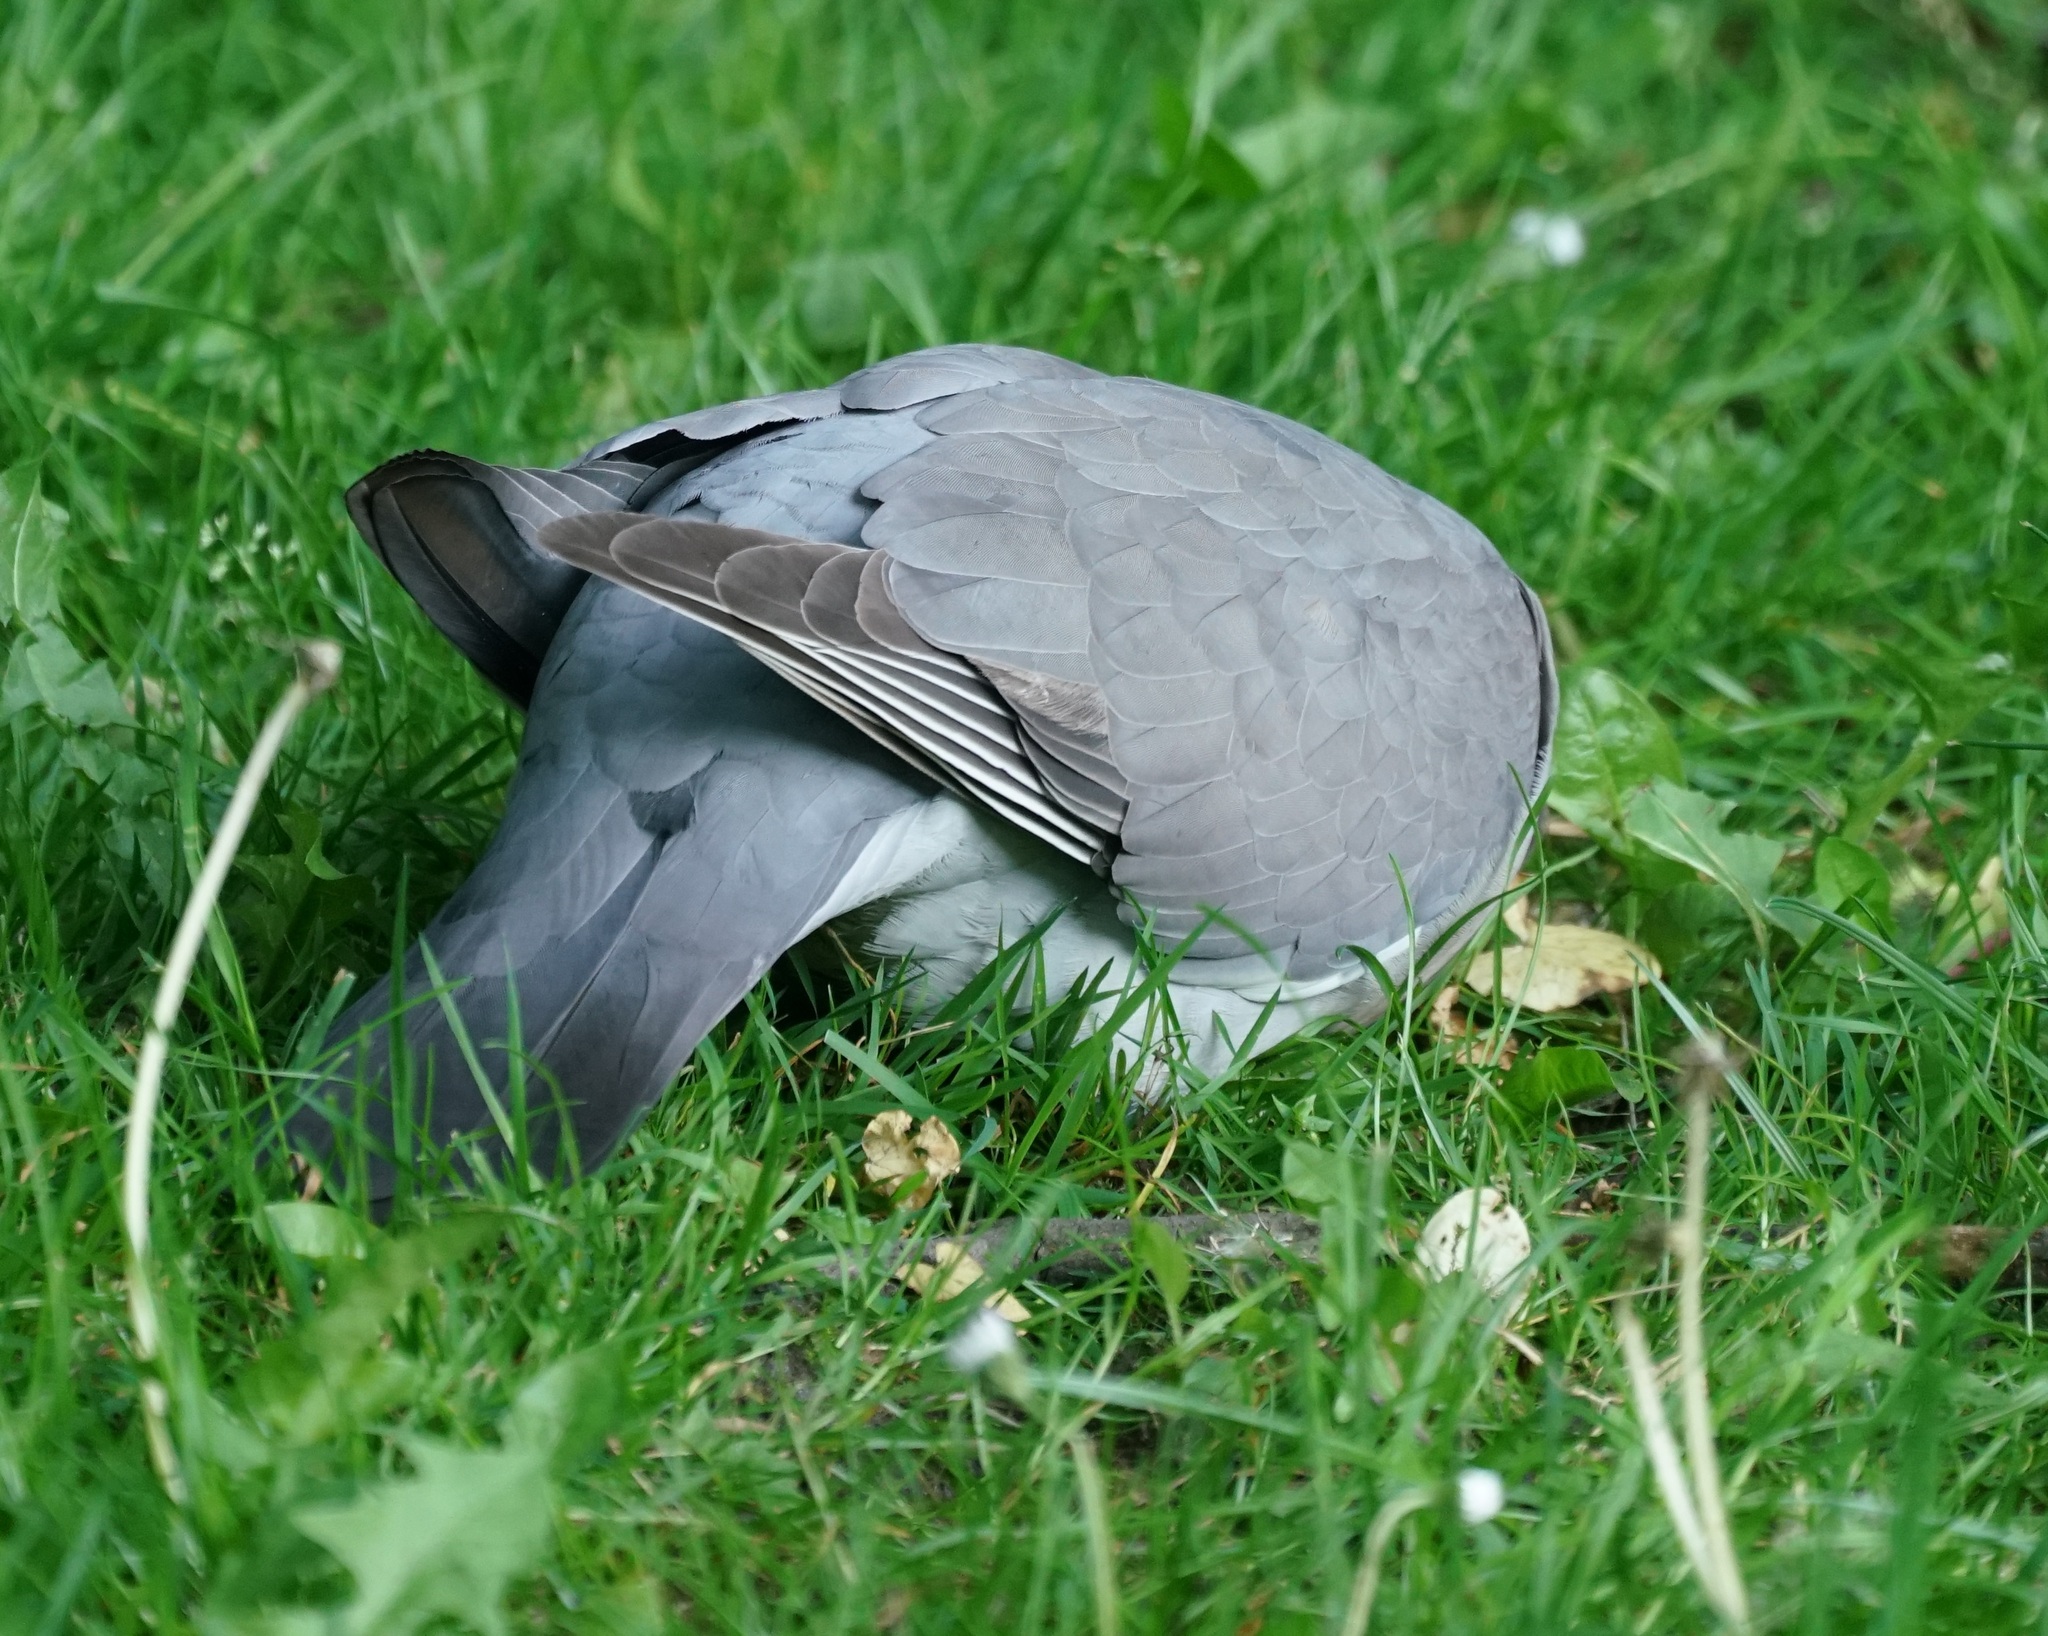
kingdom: Animalia
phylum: Chordata
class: Aves
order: Columbiformes
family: Columbidae
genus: Columba
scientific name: Columba palumbus
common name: Common wood pigeon
